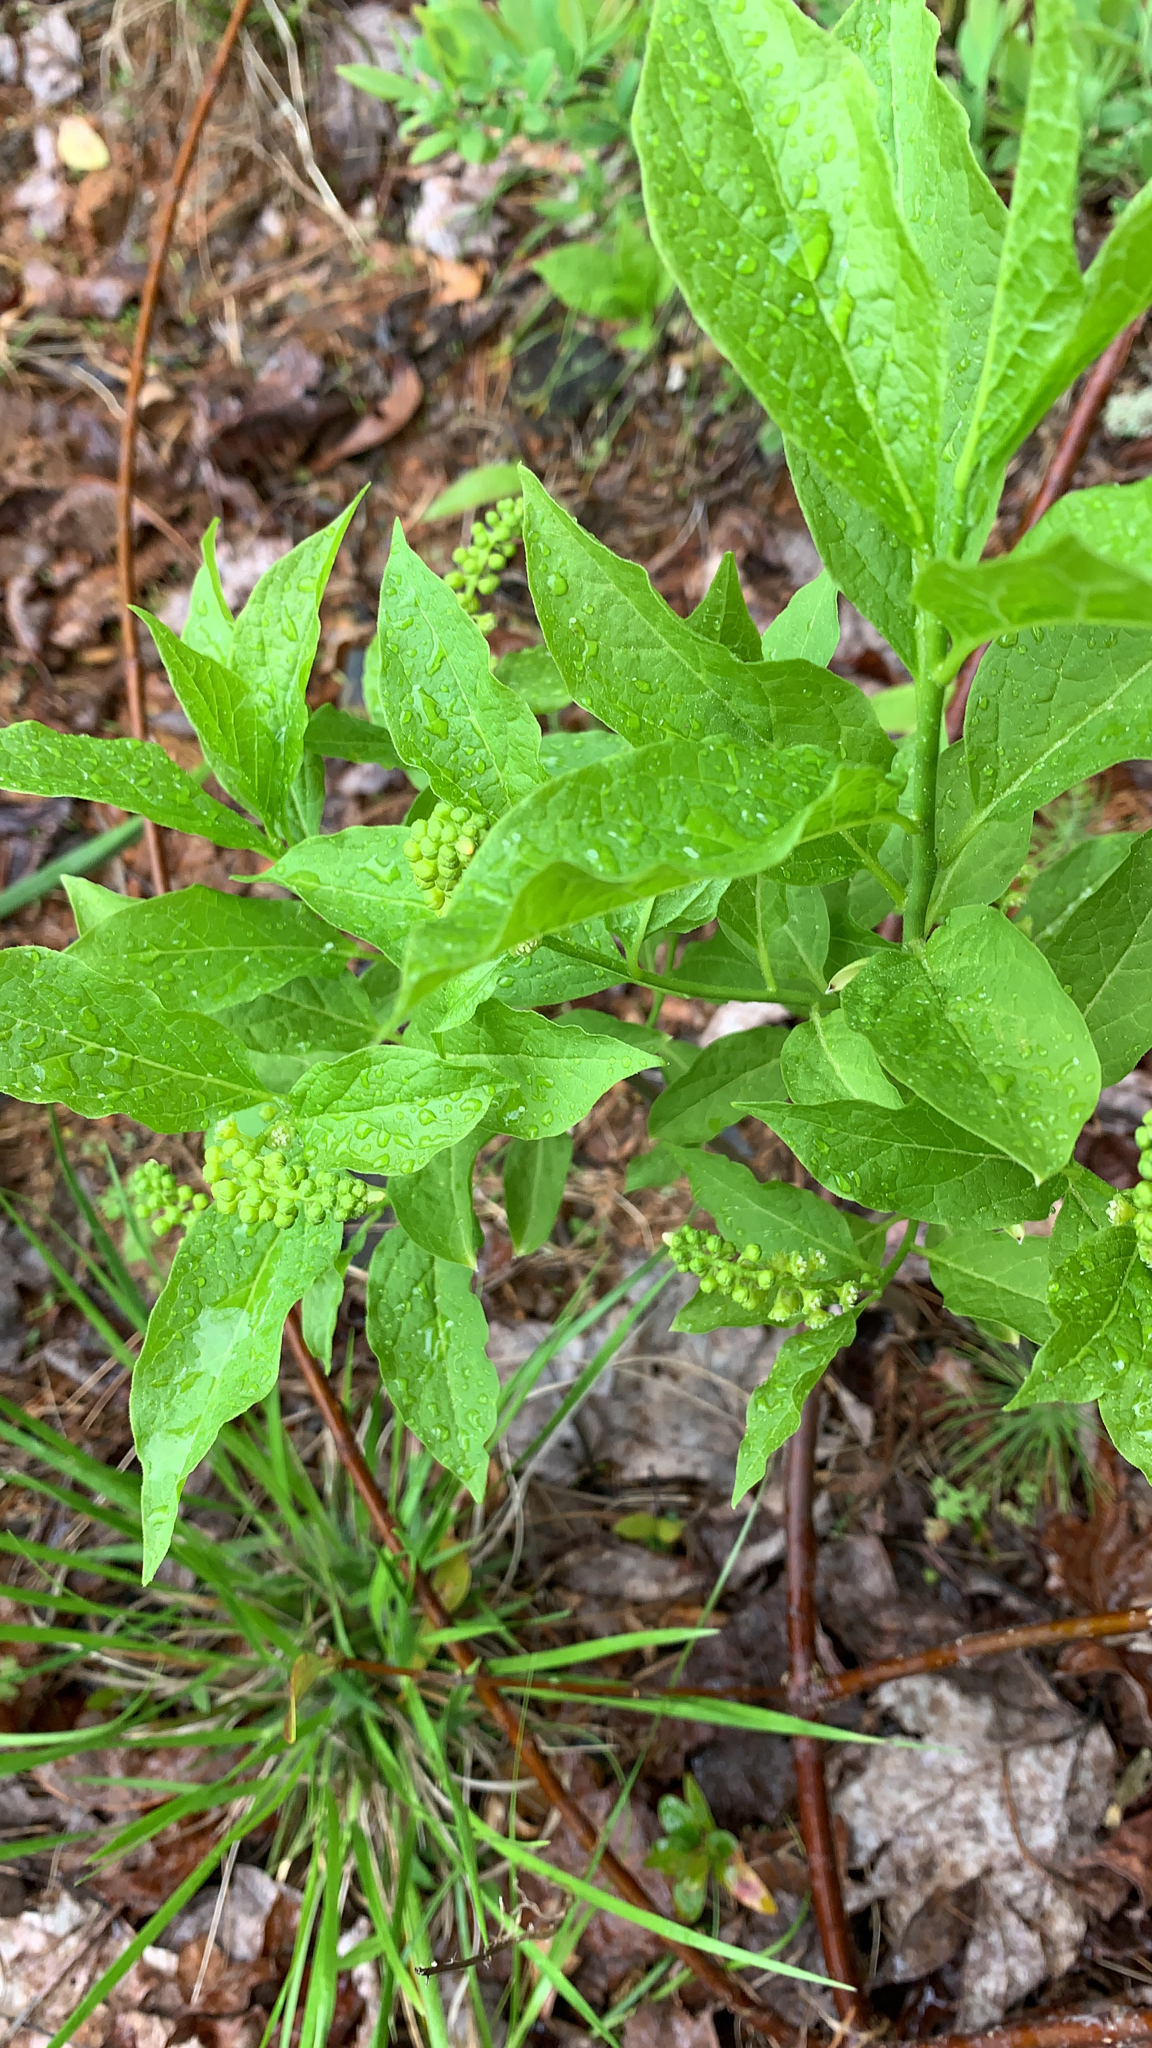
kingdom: Plantae
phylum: Tracheophyta
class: Magnoliopsida
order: Santalales
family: Cervantesiaceae
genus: Pyrularia
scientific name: Pyrularia pubera
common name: Oilnut
